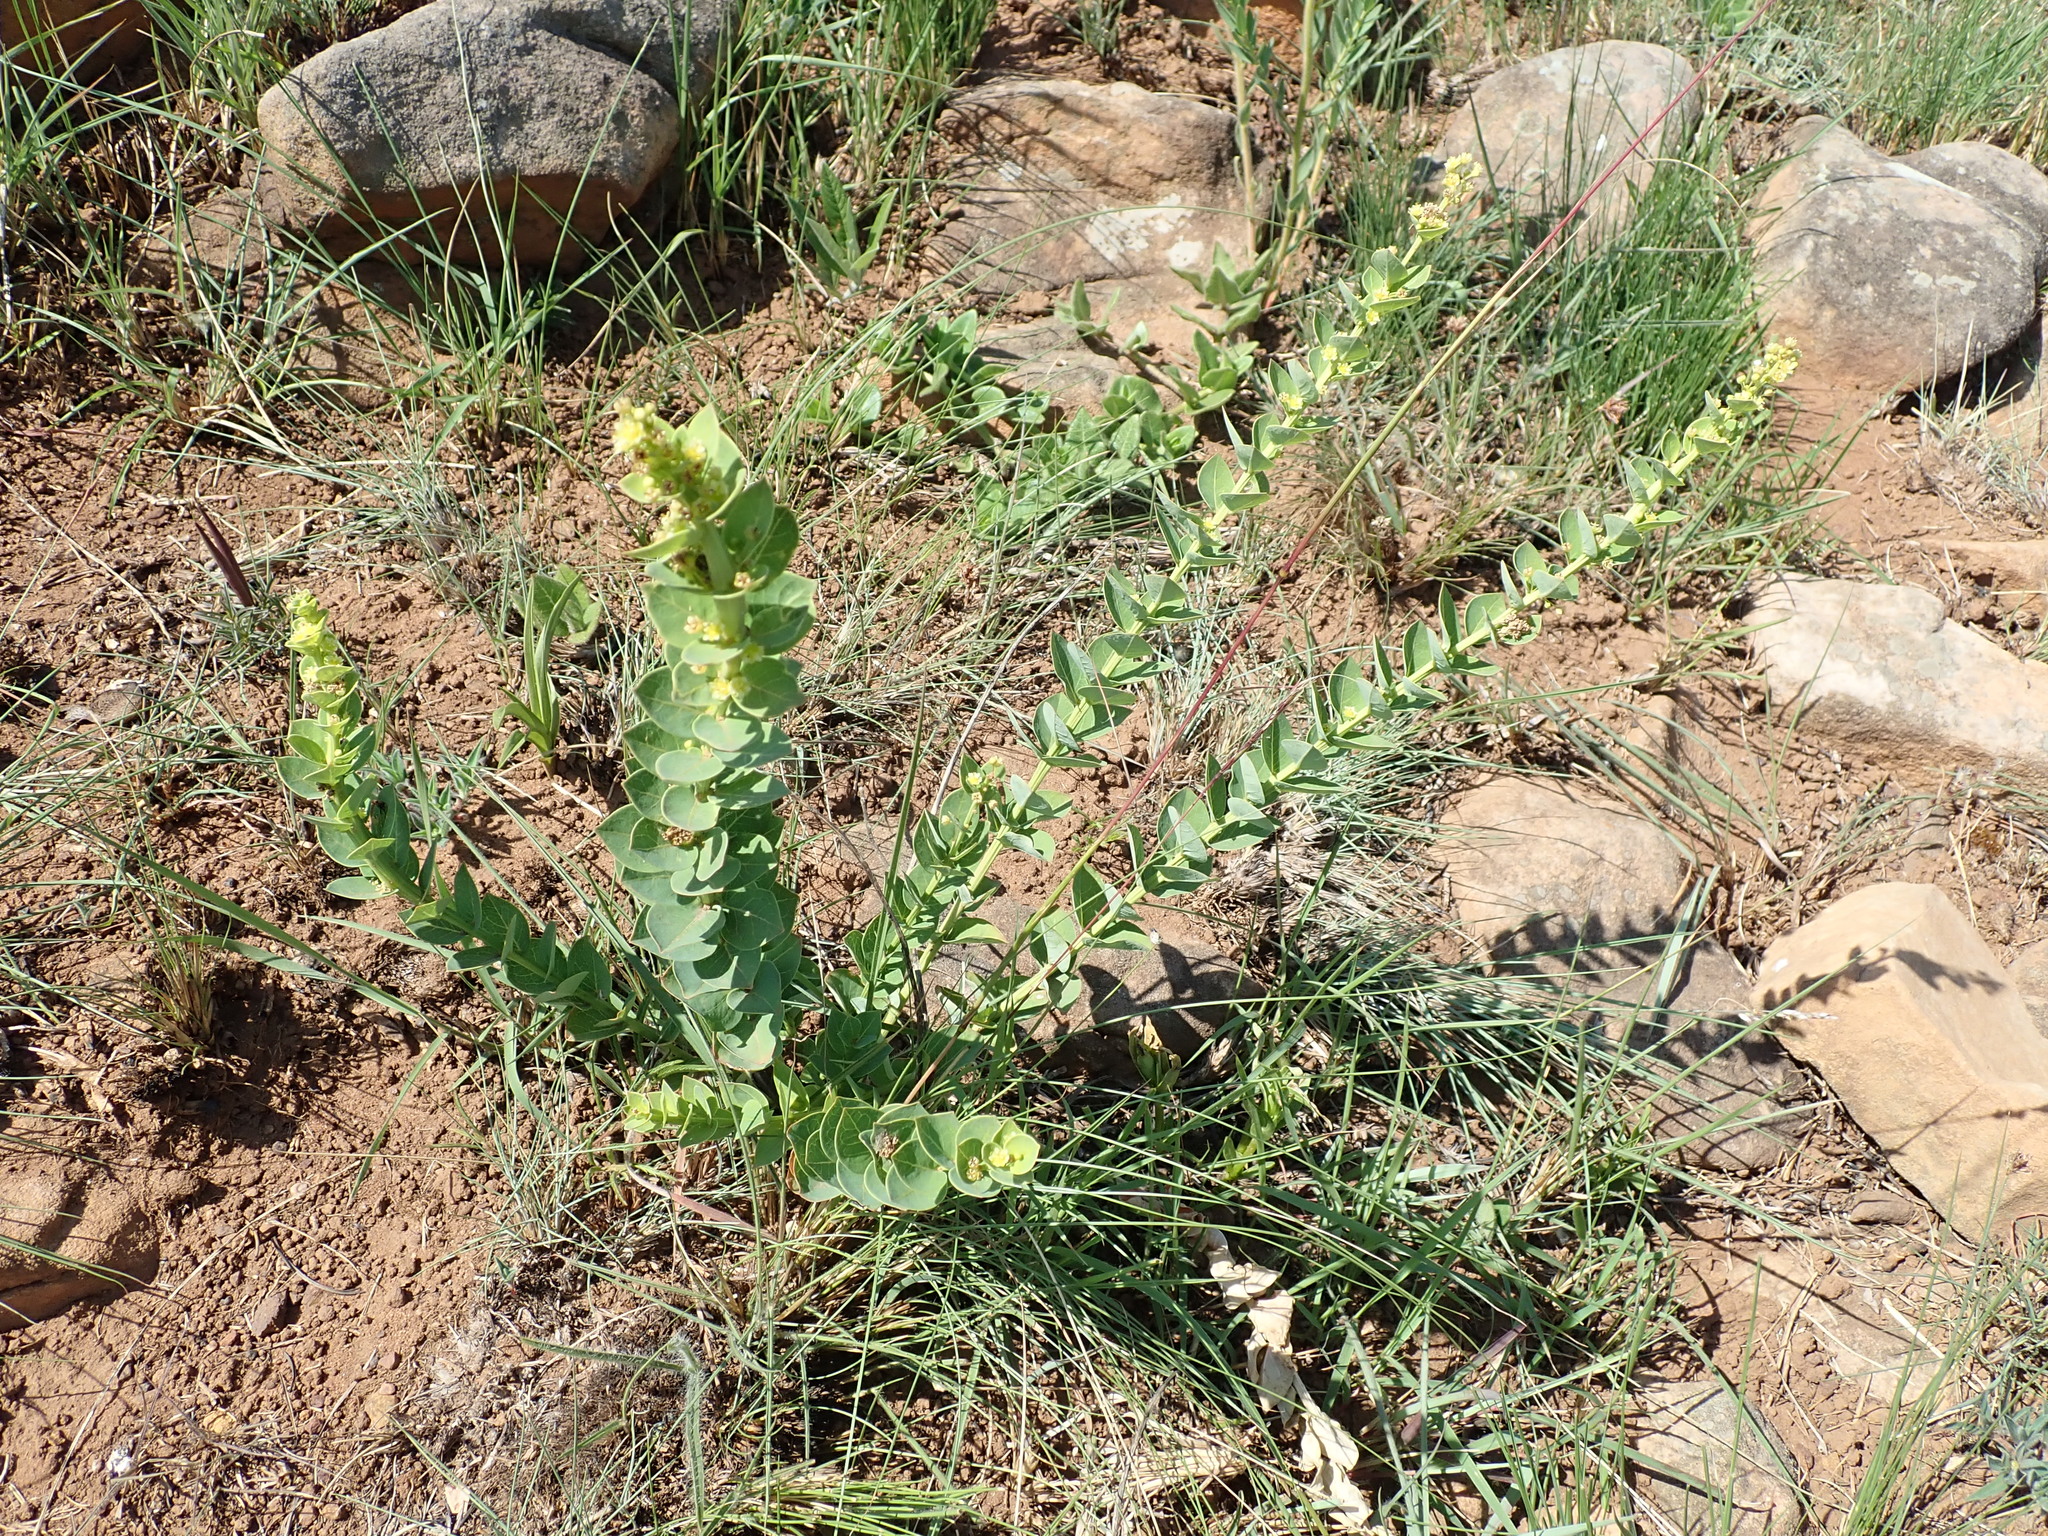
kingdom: Plantae
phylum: Tracheophyta
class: Magnoliopsida
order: Malpighiales
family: Peraceae
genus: Clutia
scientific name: Clutia cordata
